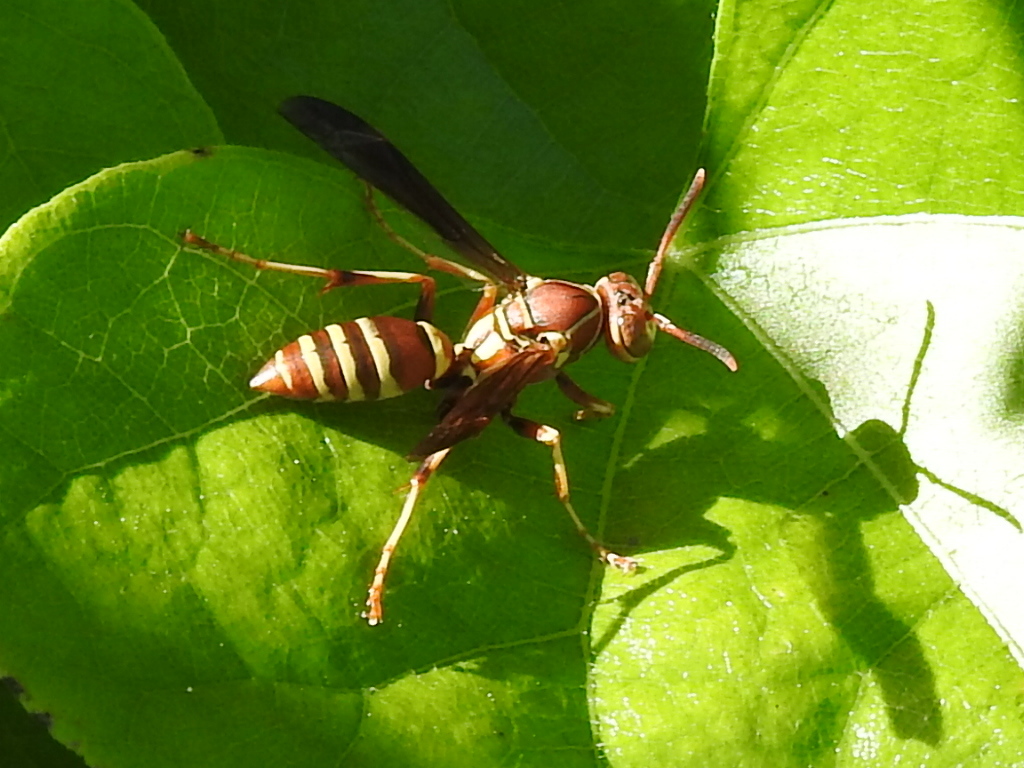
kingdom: Animalia
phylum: Arthropoda
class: Insecta
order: Hymenoptera
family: Eumenidae
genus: Polistes
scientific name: Polistes dorsalis
